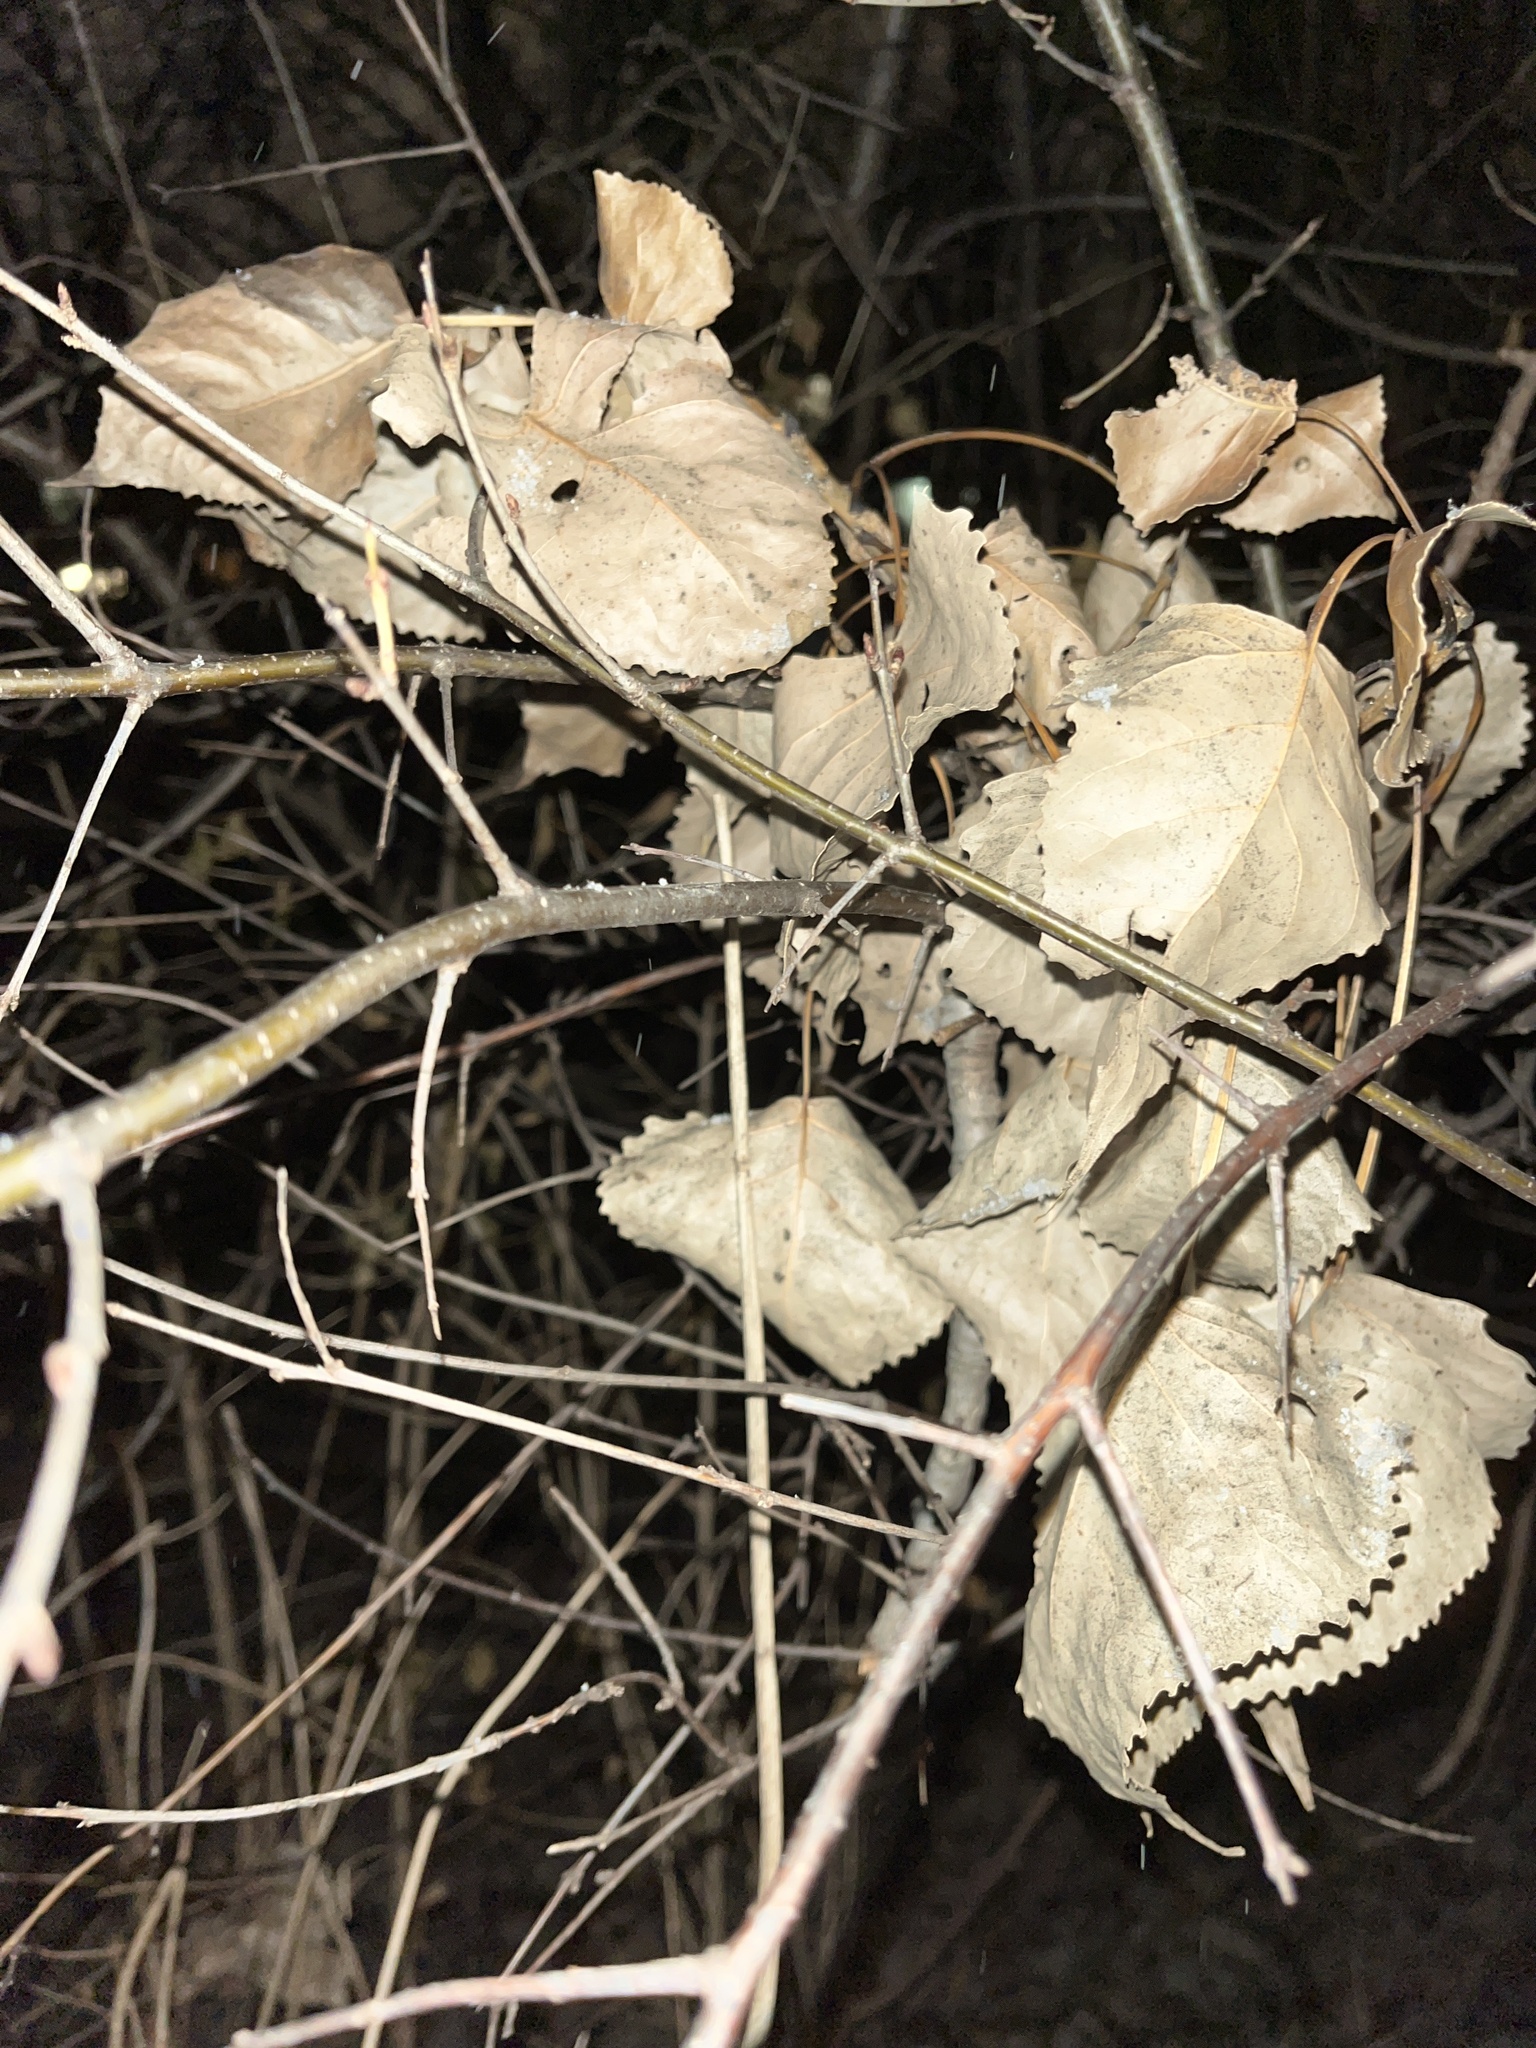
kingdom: Plantae
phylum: Tracheophyta
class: Magnoliopsida
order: Malpighiales
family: Salicaceae
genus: Populus
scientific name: Populus deltoides
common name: Eastern cottonwood
